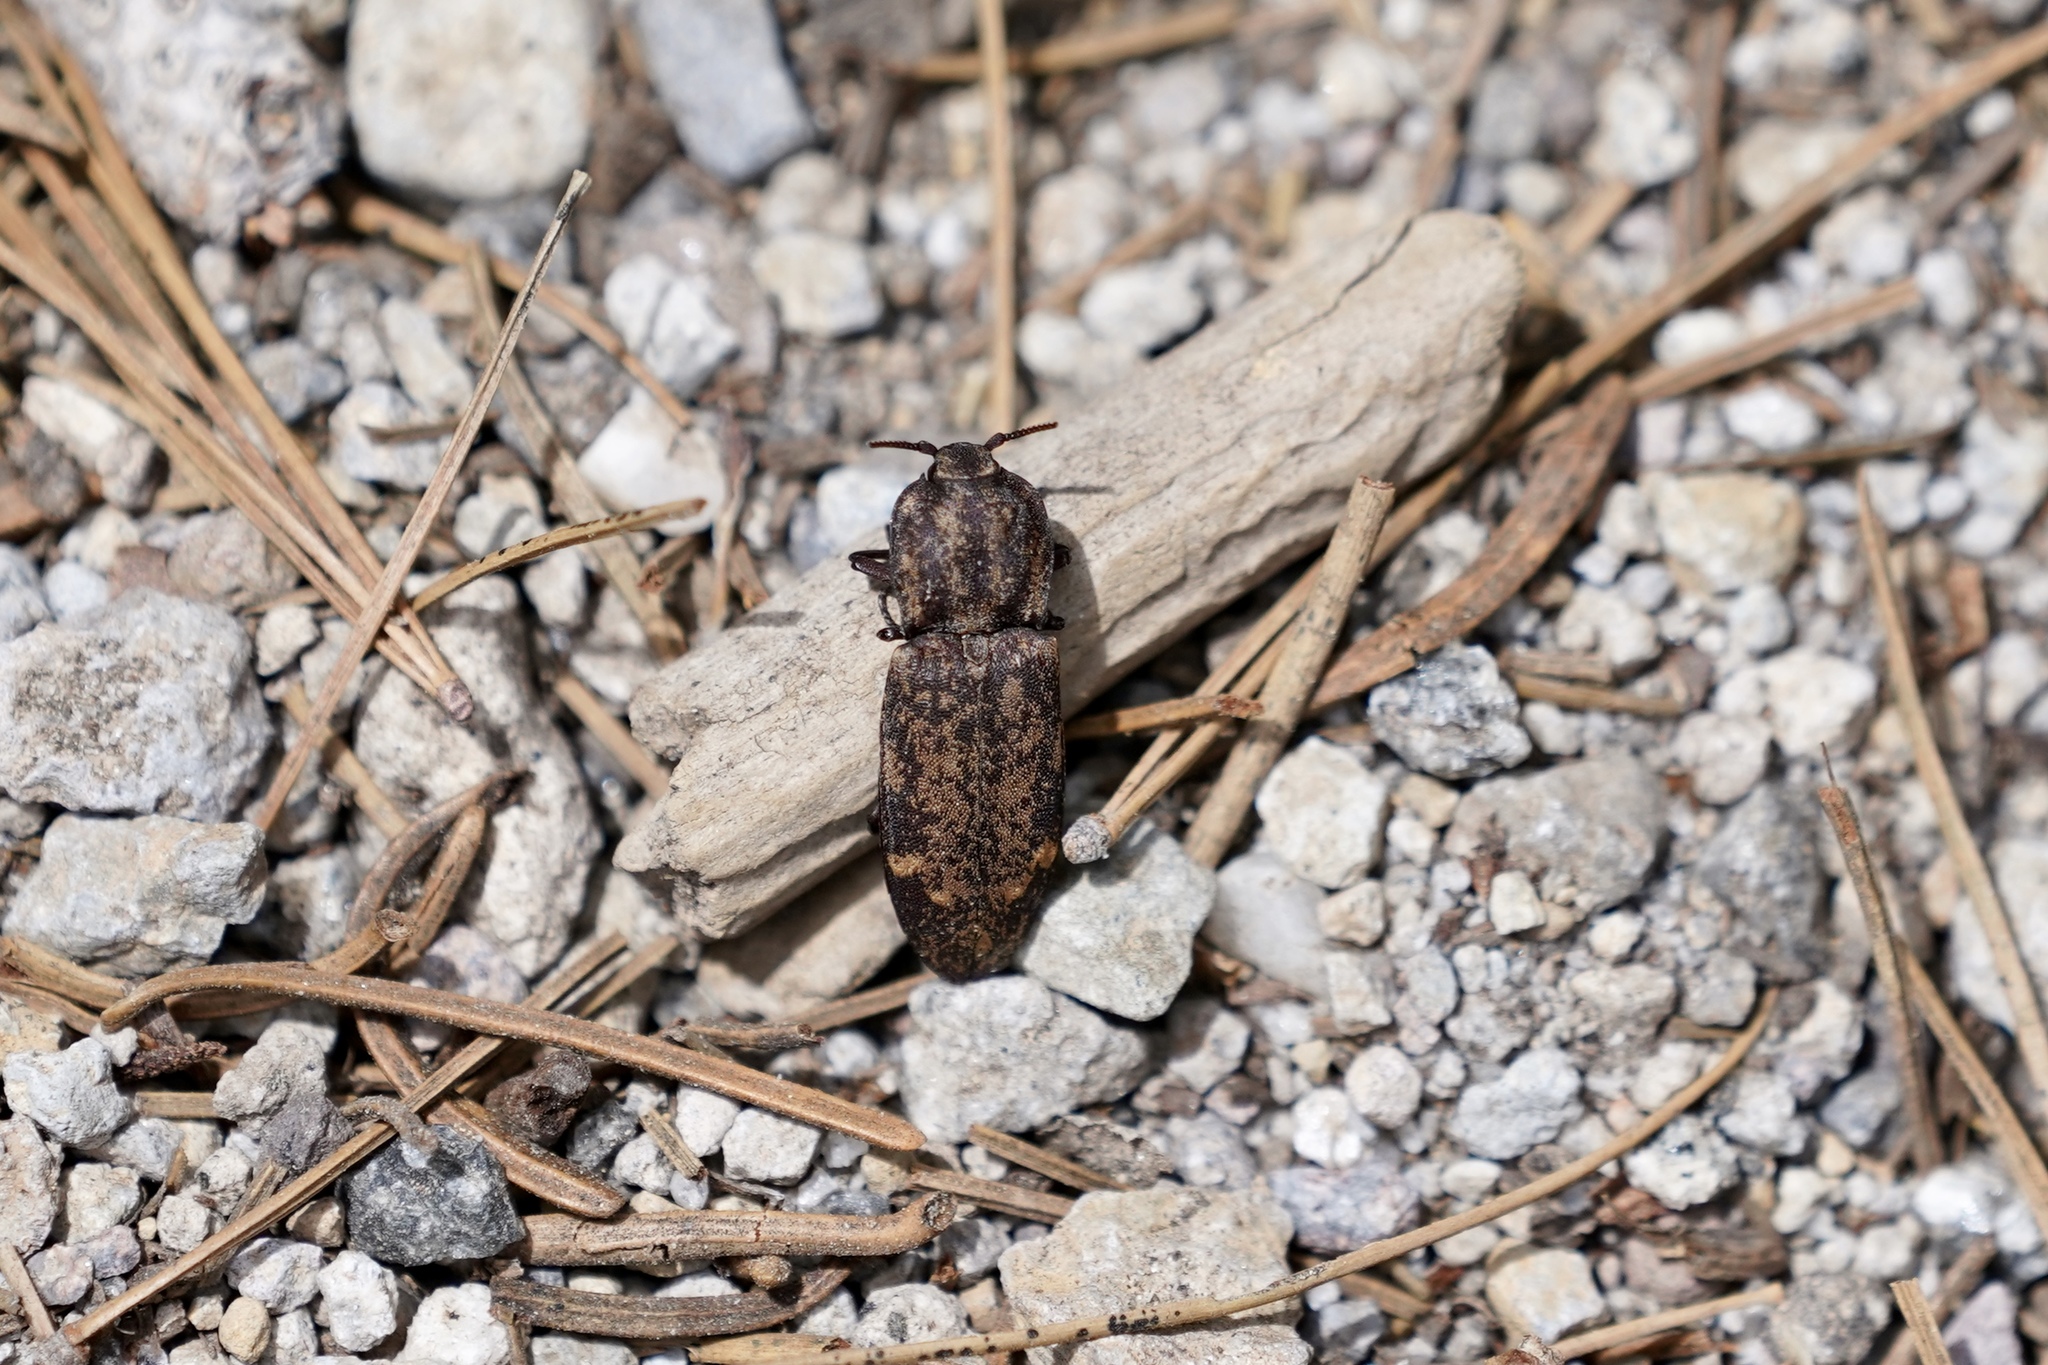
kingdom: Animalia
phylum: Arthropoda
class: Insecta
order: Coleoptera
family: Elateridae
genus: Danosoma
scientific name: Danosoma brevicorne
